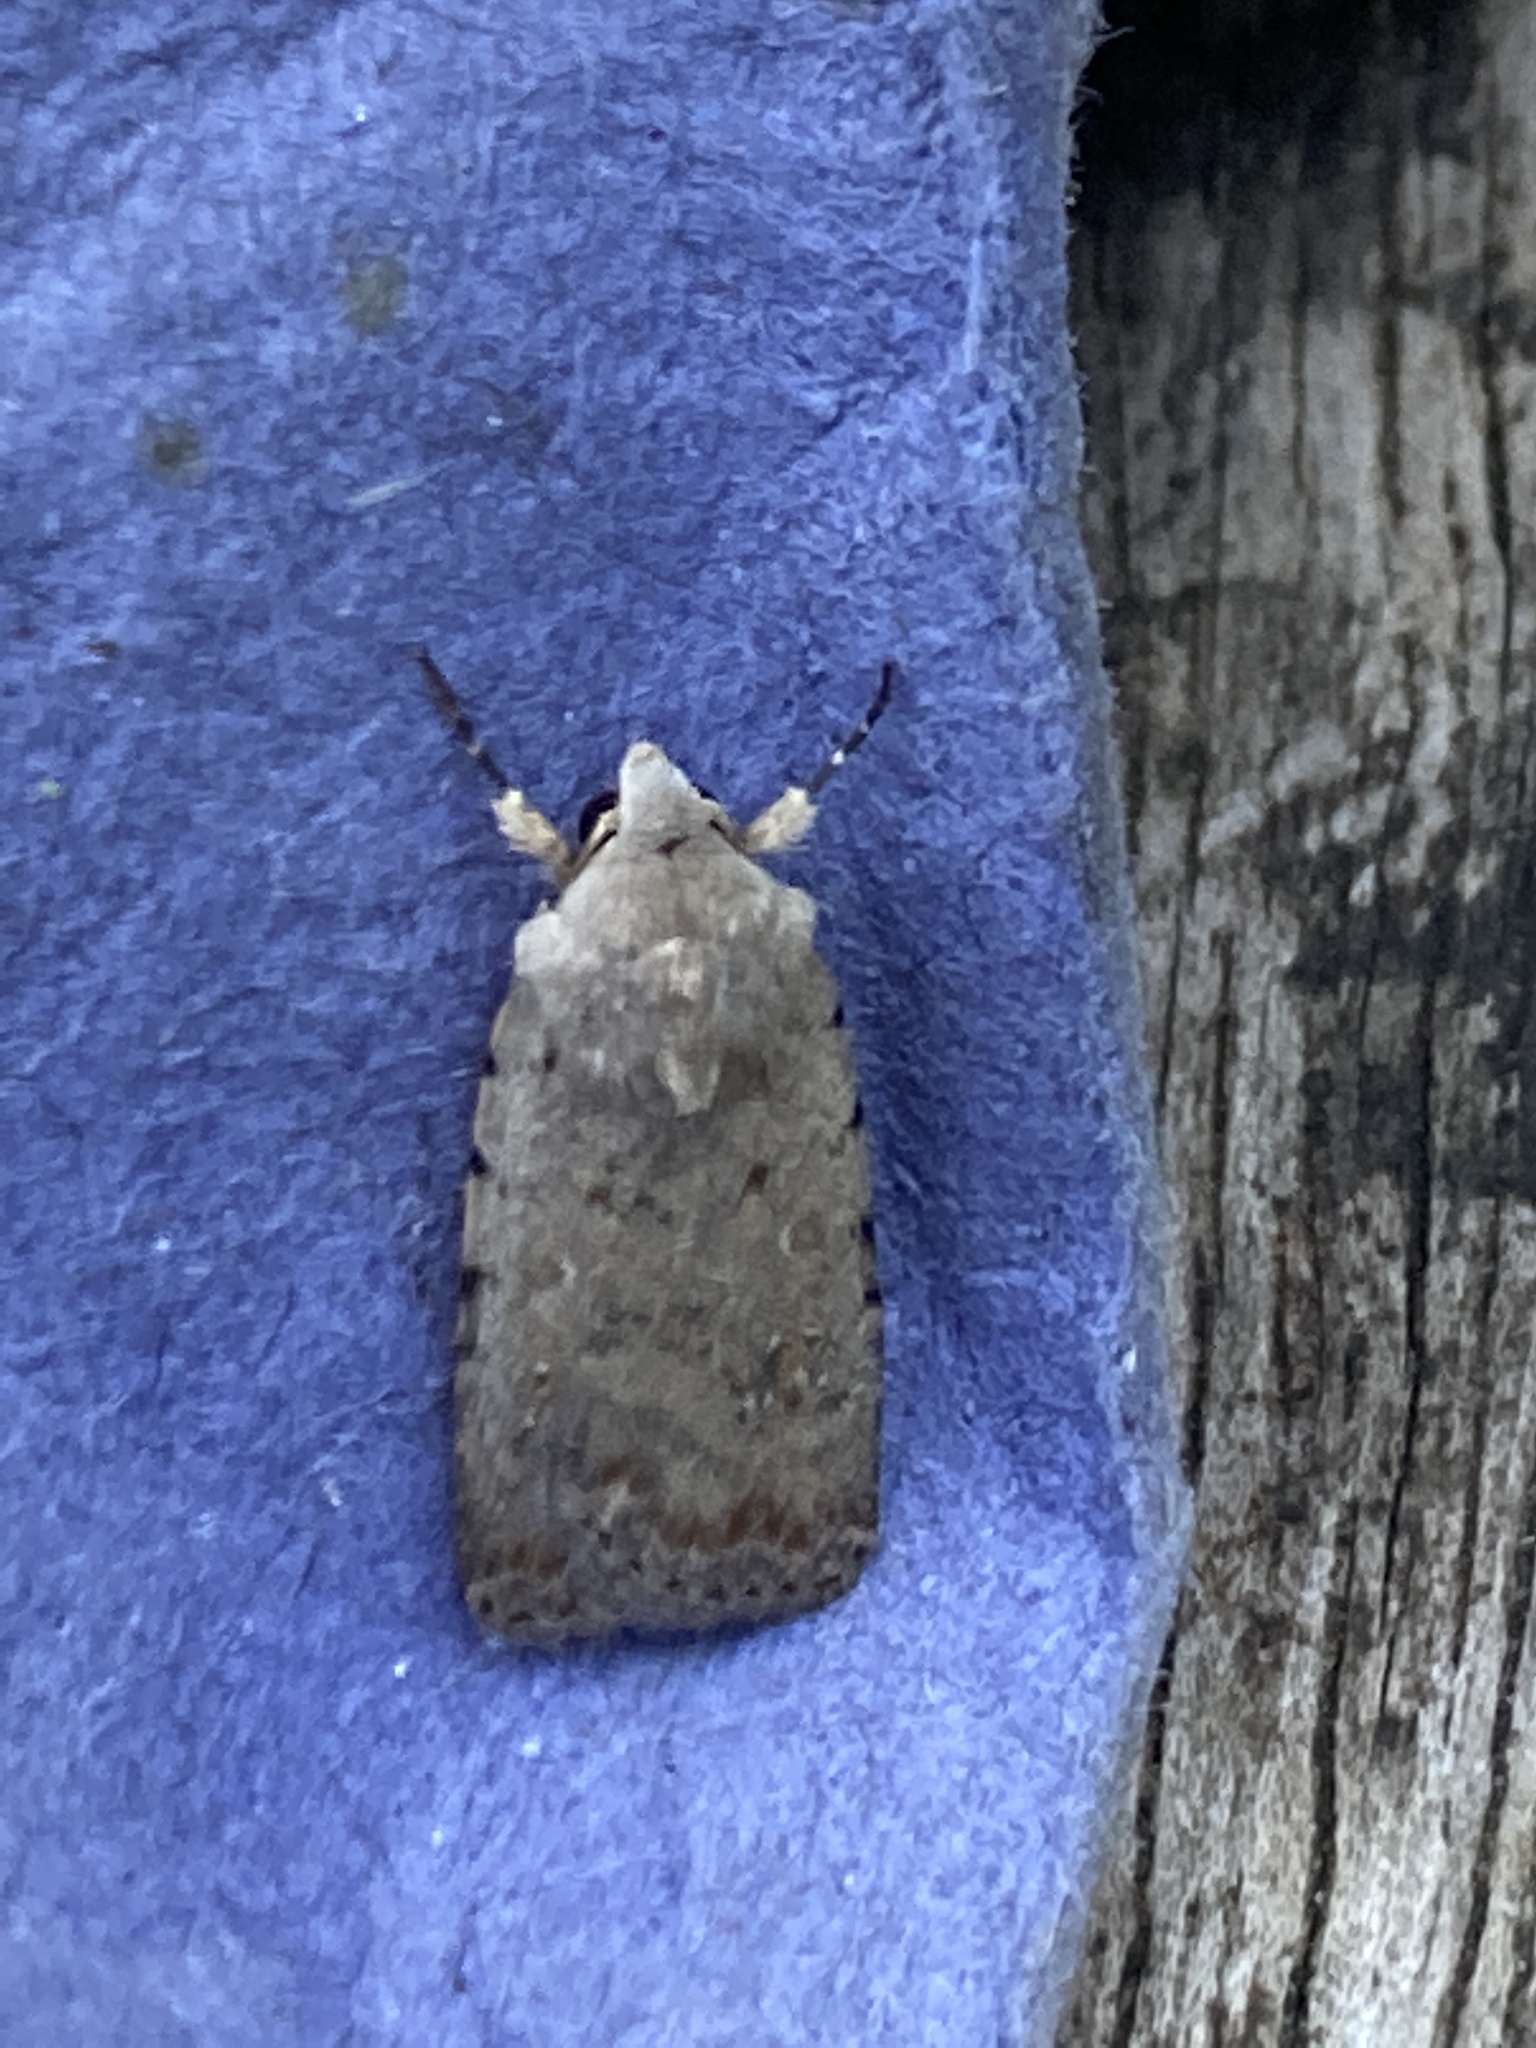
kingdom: Animalia
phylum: Arthropoda
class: Insecta
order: Lepidoptera
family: Noctuidae
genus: Caradrina
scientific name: Caradrina clavipalpis
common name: Pale mottled willow
